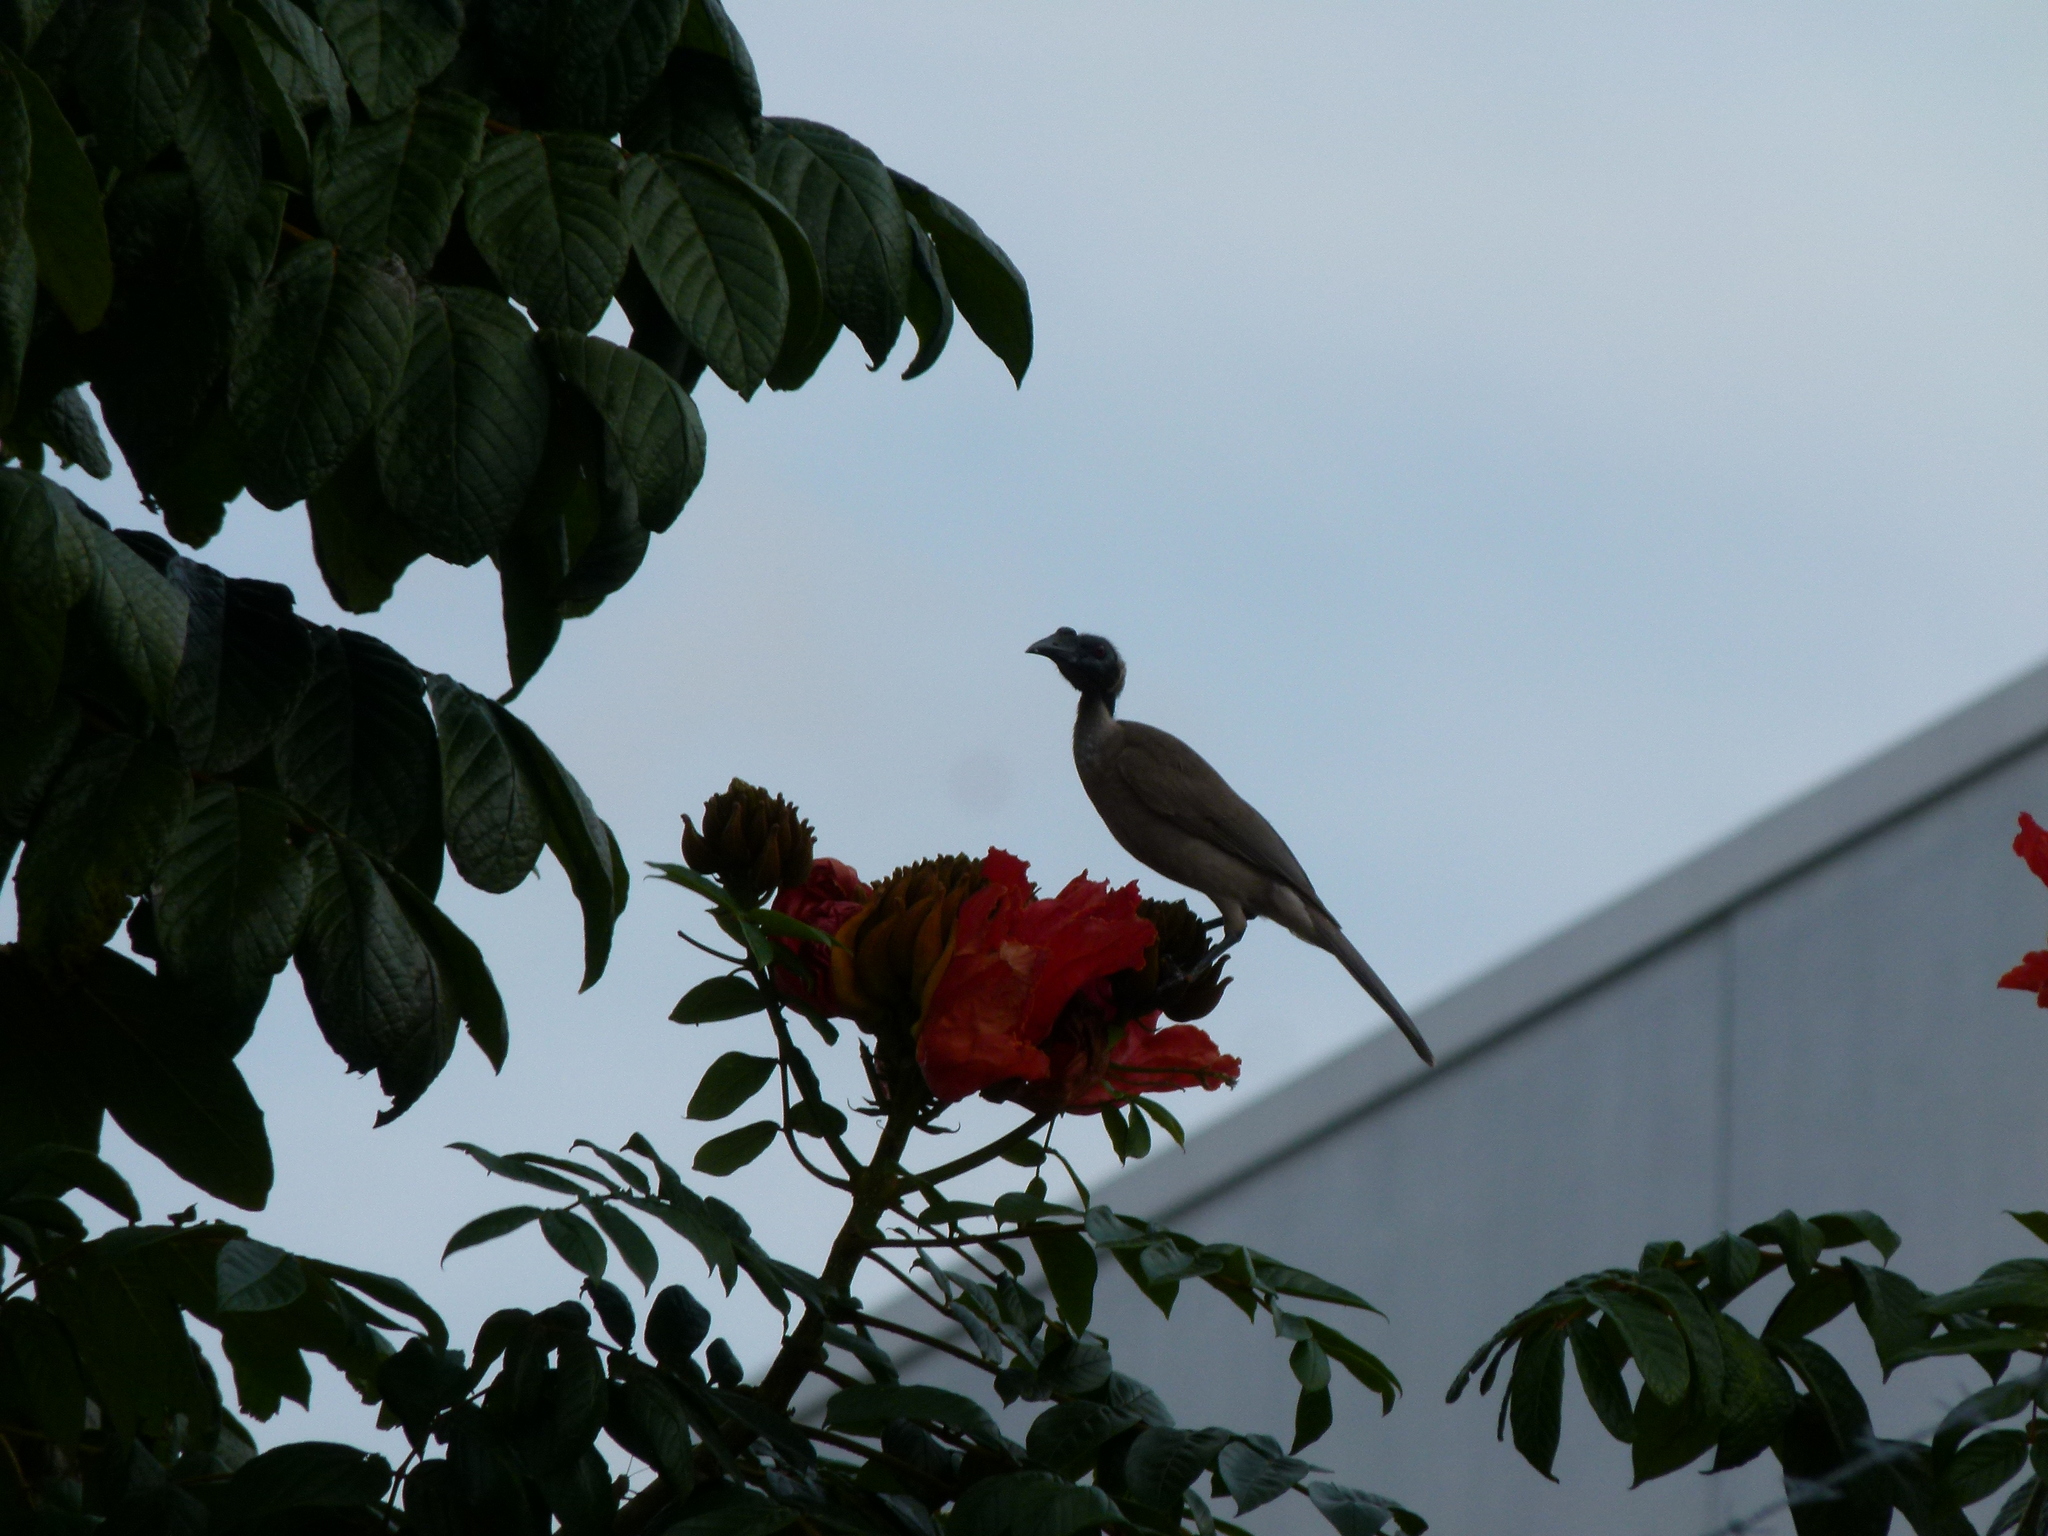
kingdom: Animalia
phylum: Chordata
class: Aves
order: Passeriformes
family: Meliphagidae
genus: Philemon
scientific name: Philemon yorki
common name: Hornbill friarbird
